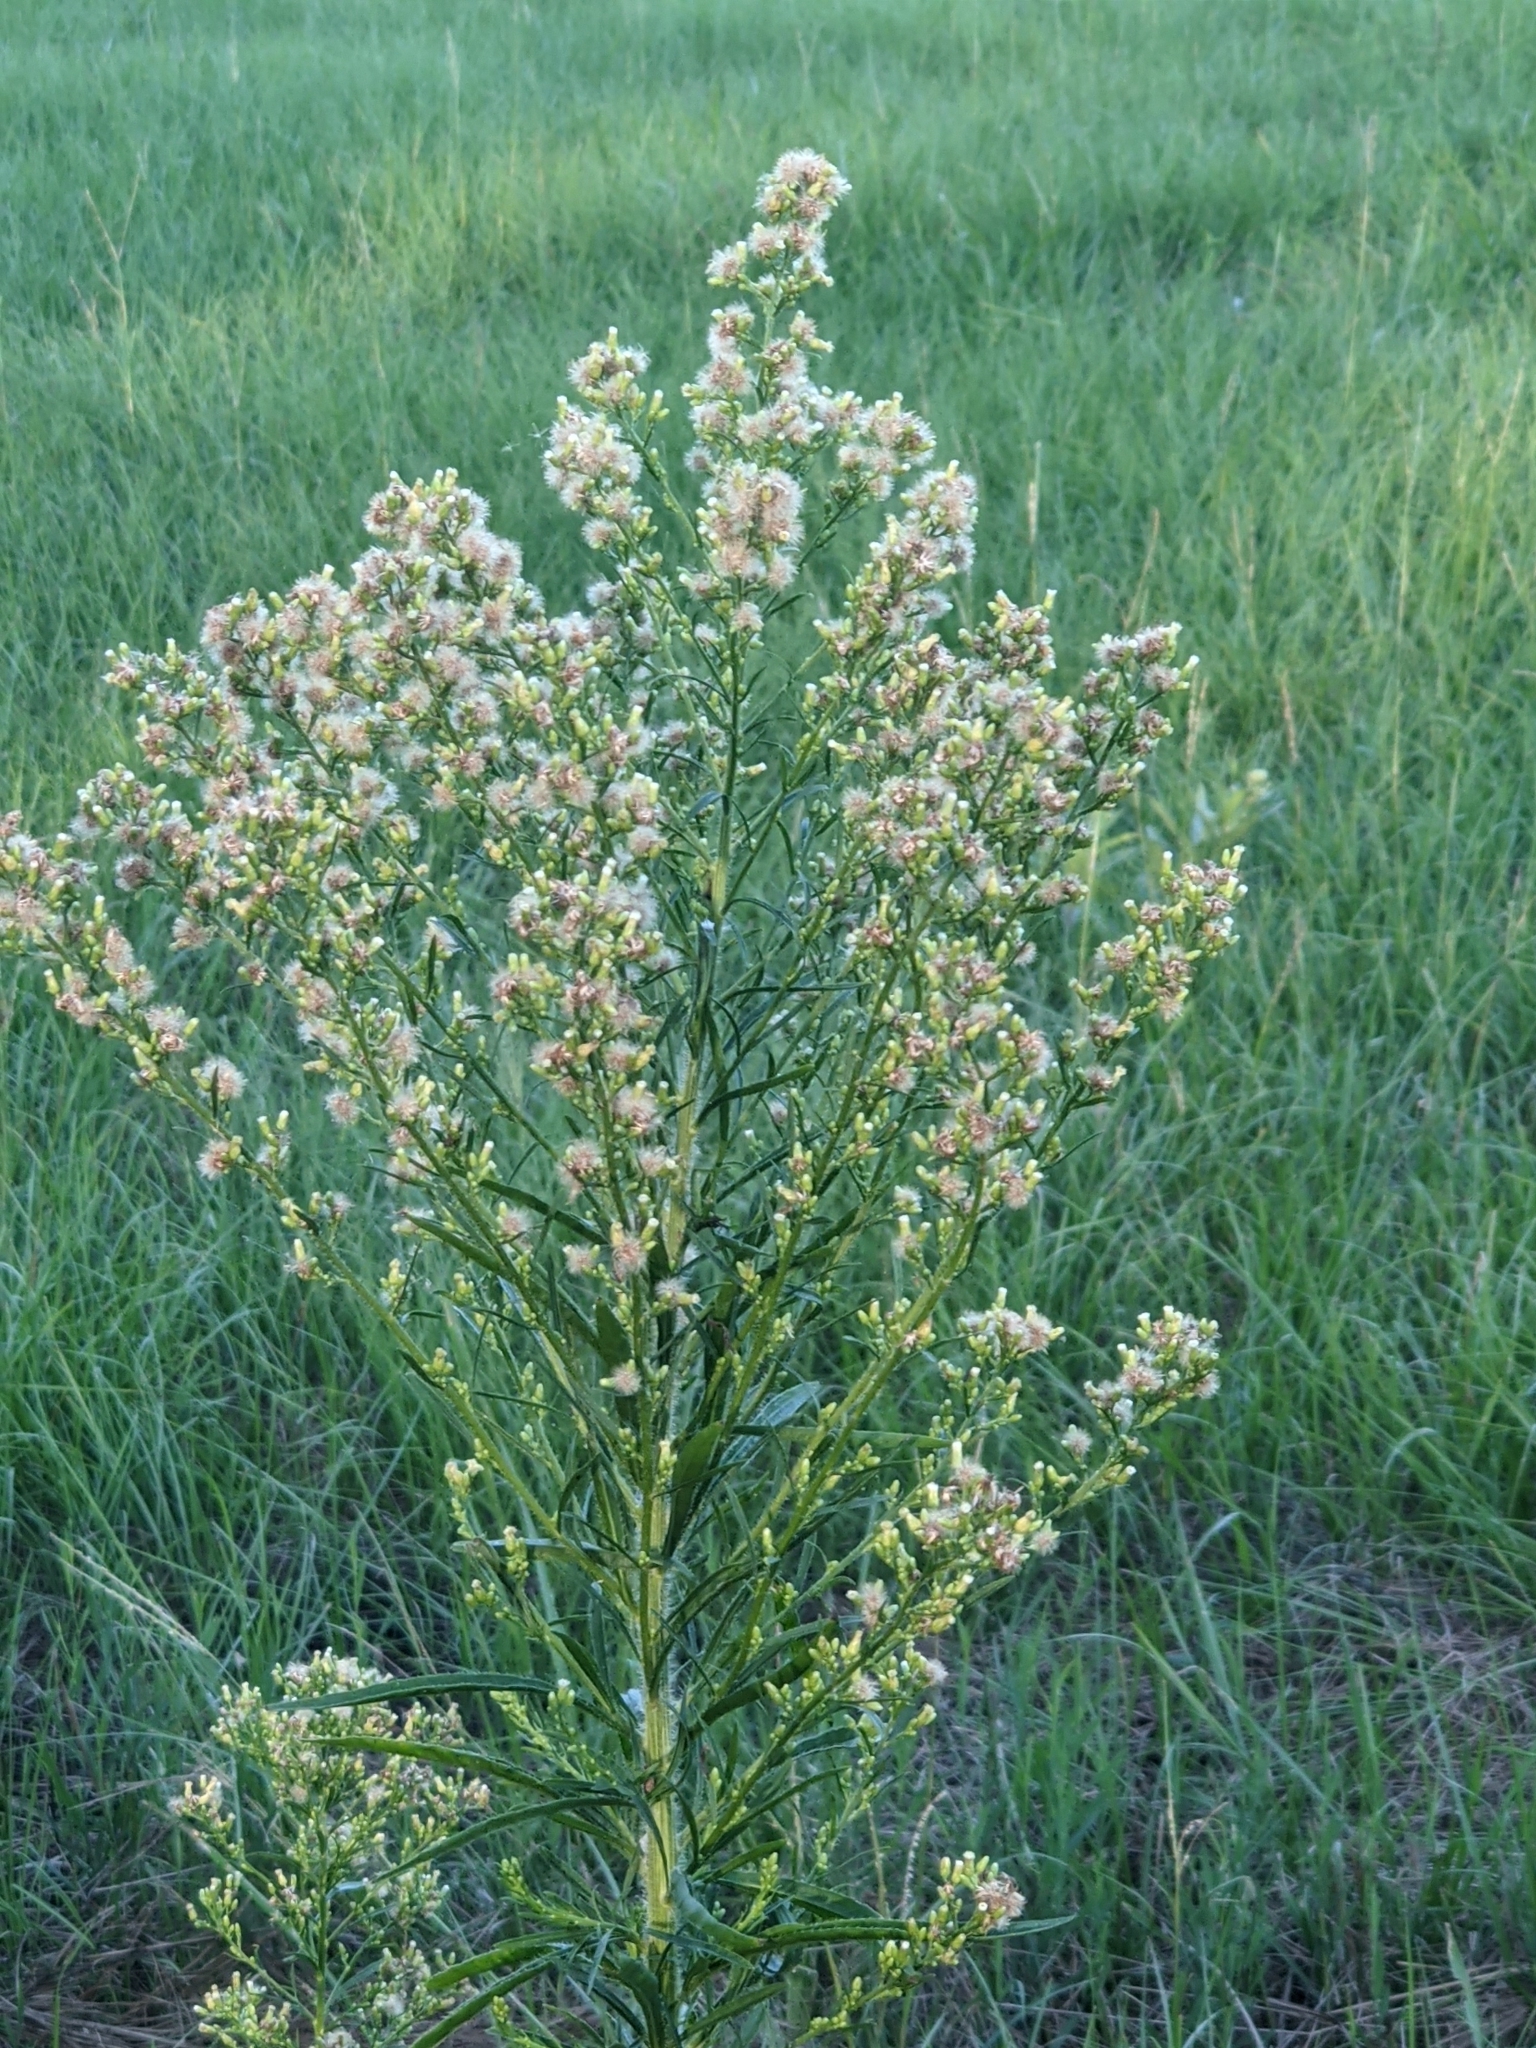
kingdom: Plantae
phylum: Tracheophyta
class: Magnoliopsida
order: Asterales
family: Asteraceae
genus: Erigeron
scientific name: Erigeron canadensis
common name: Canadian fleabane
